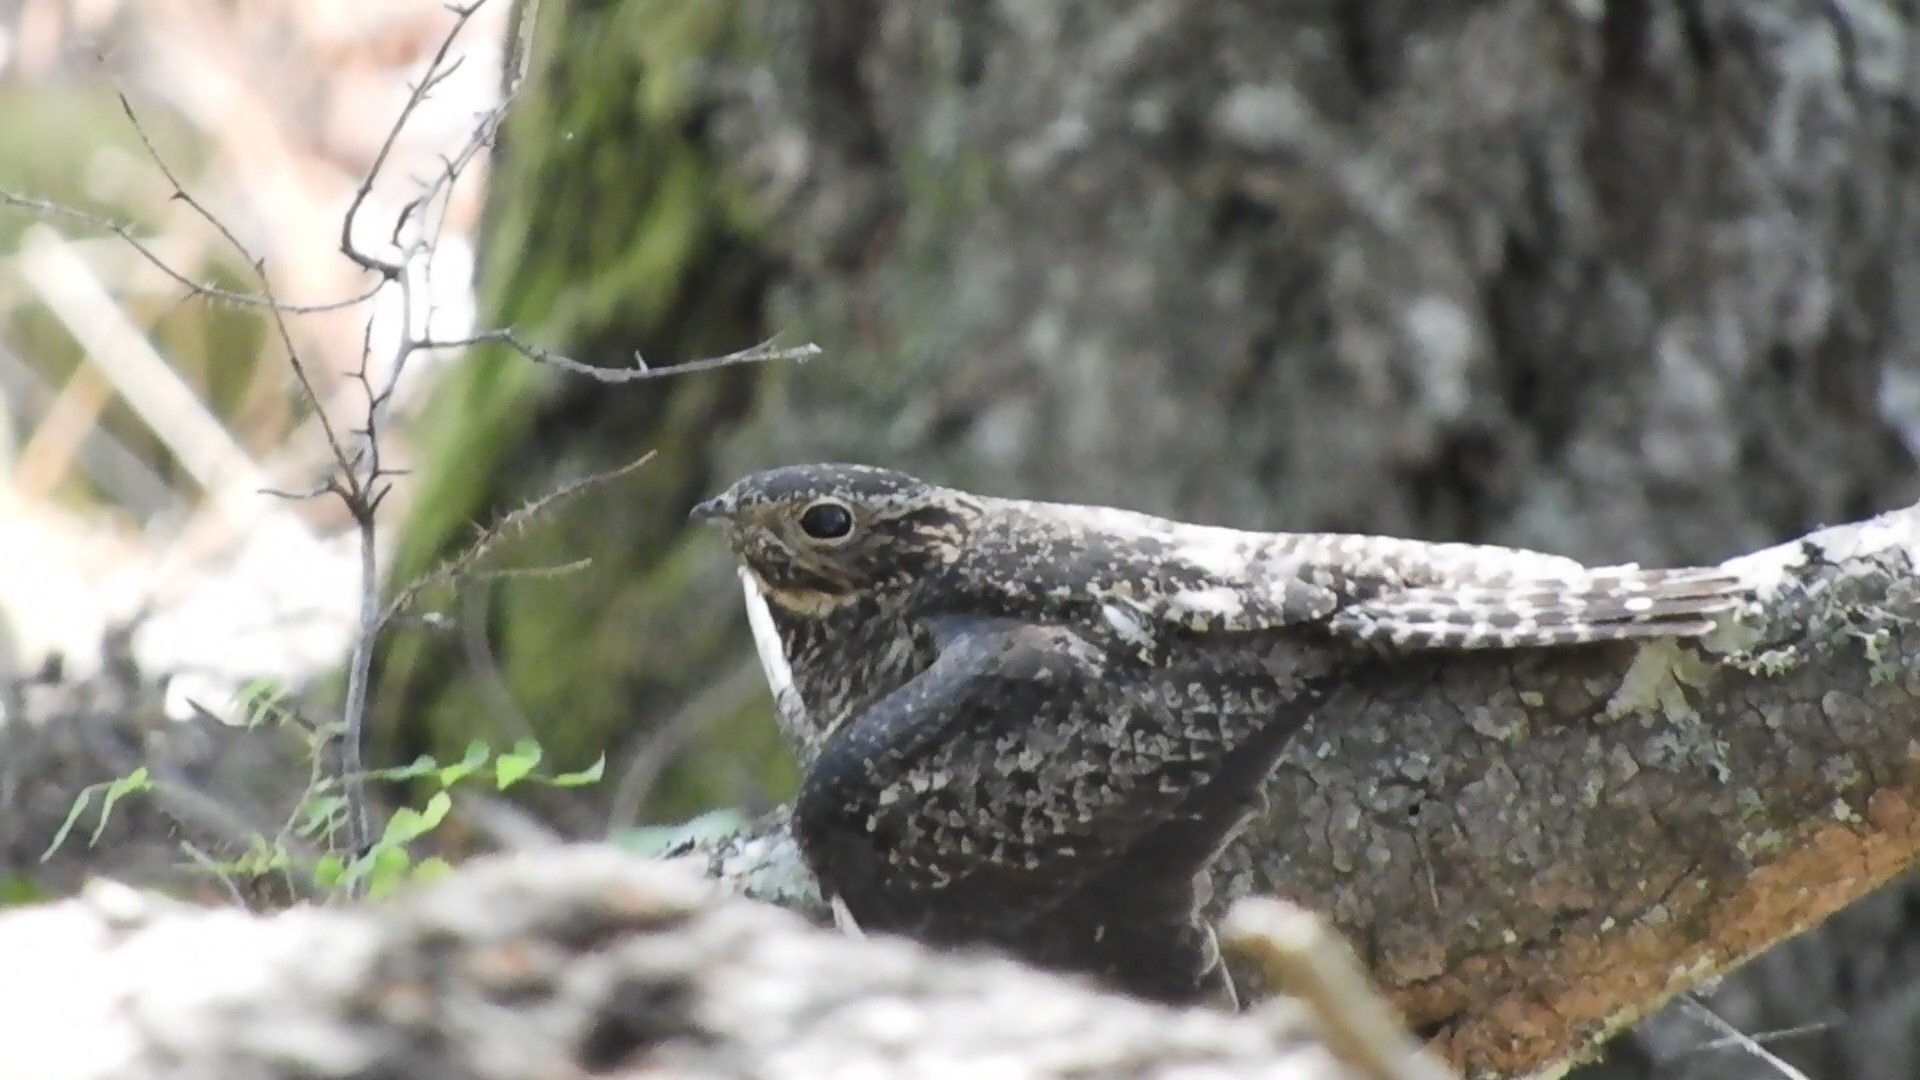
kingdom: Animalia
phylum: Chordata
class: Aves
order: Caprimulgiformes
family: Caprimulgidae
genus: Chordeiles
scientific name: Chordeiles minor
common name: Common nighthawk
